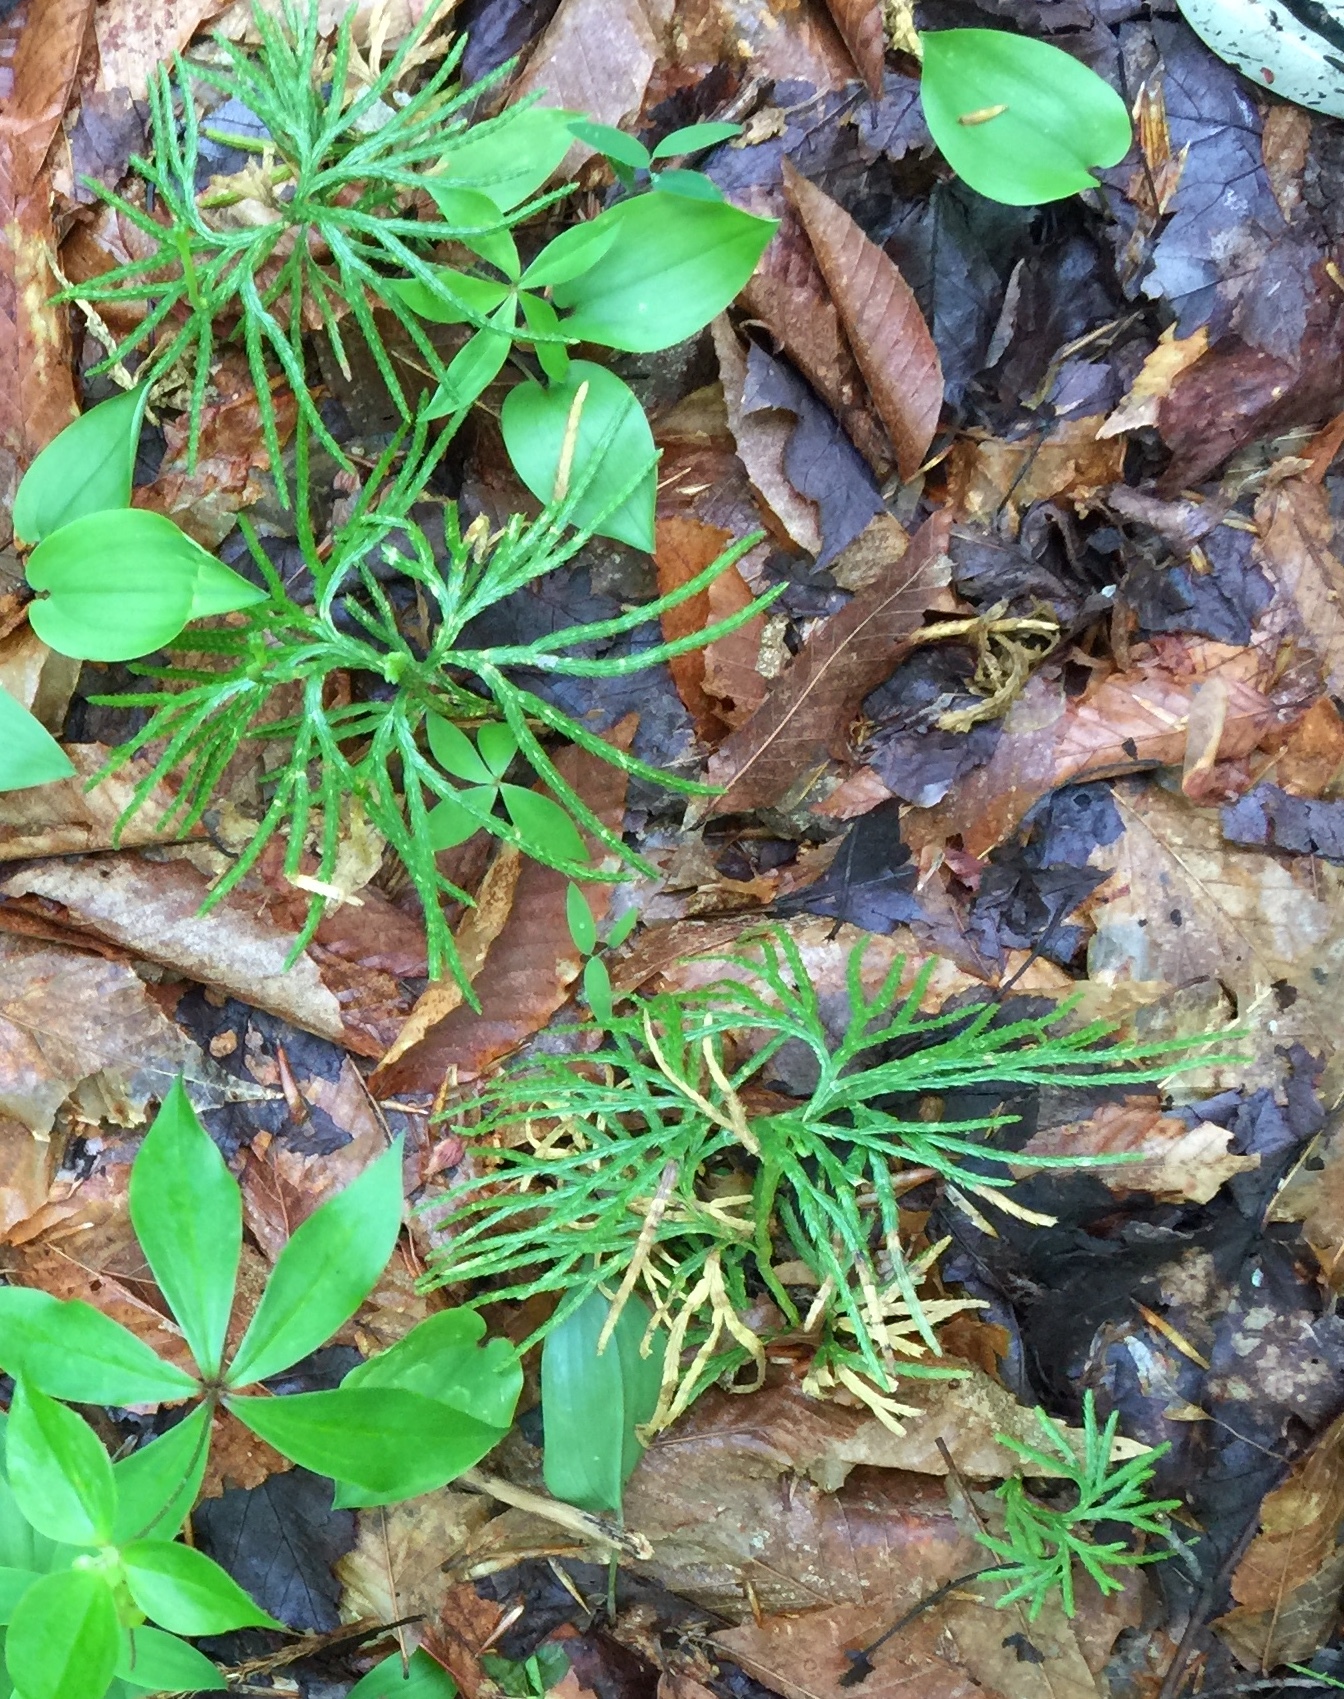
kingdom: Plantae
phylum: Tracheophyta
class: Lycopodiopsida
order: Lycopodiales
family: Lycopodiaceae
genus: Diphasiastrum
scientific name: Diphasiastrum digitatum
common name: Southern running-pine
